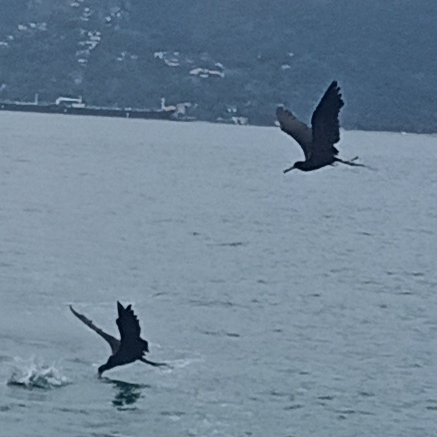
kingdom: Animalia
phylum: Chordata
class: Aves
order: Suliformes
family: Fregatidae
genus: Fregata
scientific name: Fregata magnificens
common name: Magnificent frigatebird
